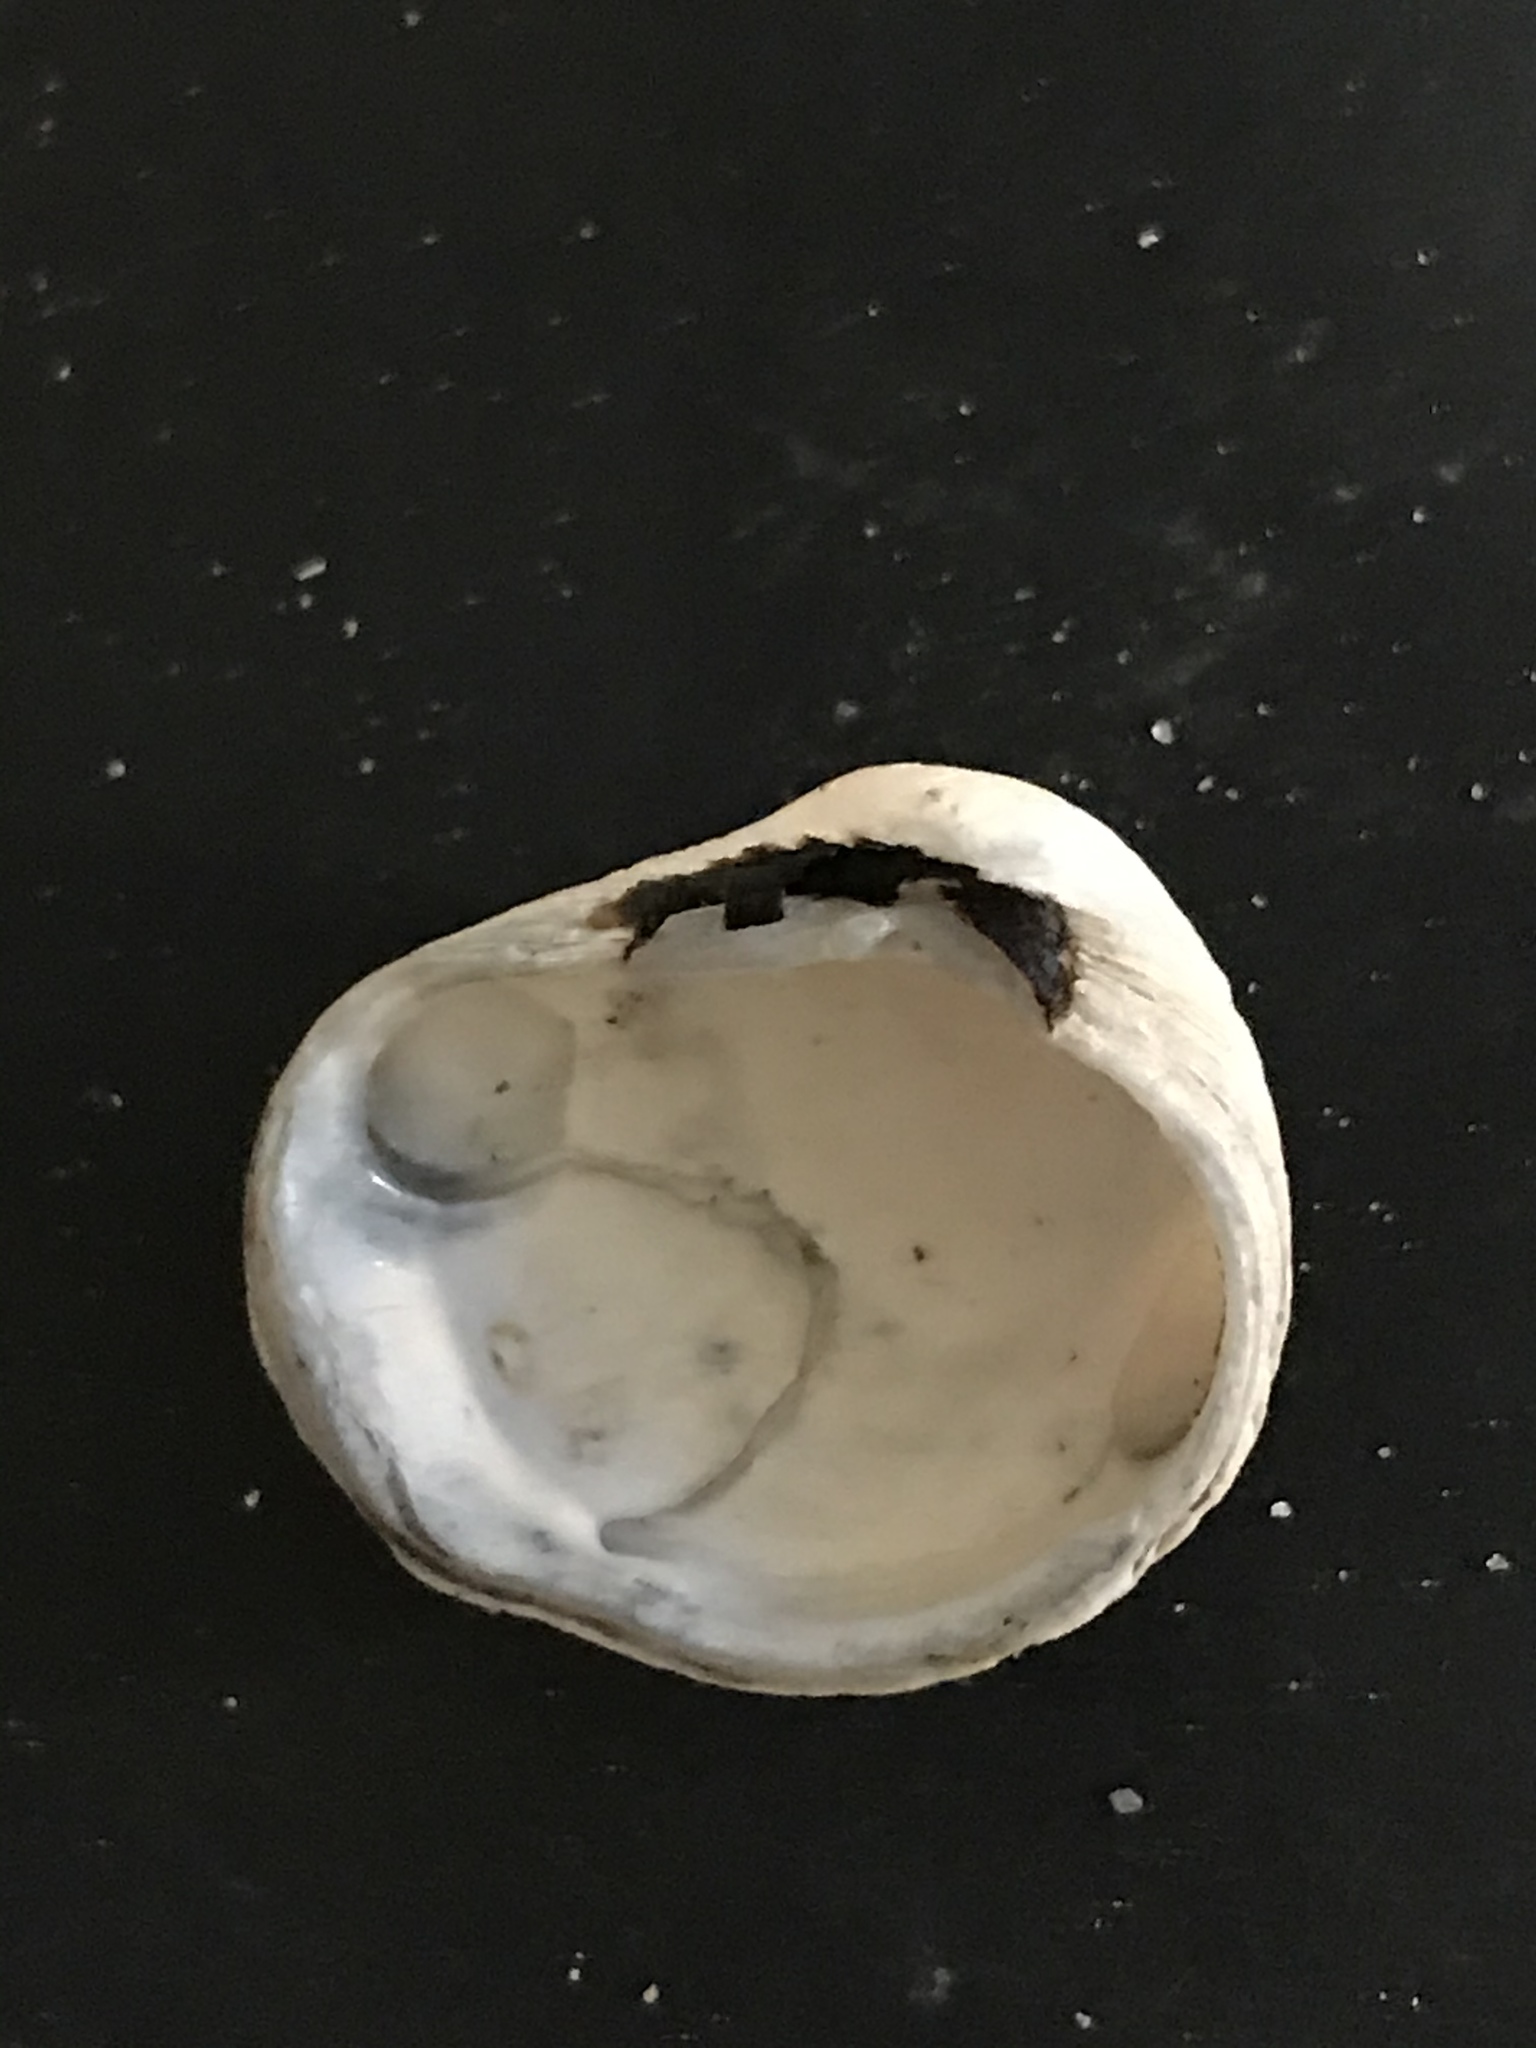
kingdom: Animalia
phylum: Mollusca
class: Bivalvia
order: Venerida
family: Veneridae
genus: Petricola
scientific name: Petricola carditoides
